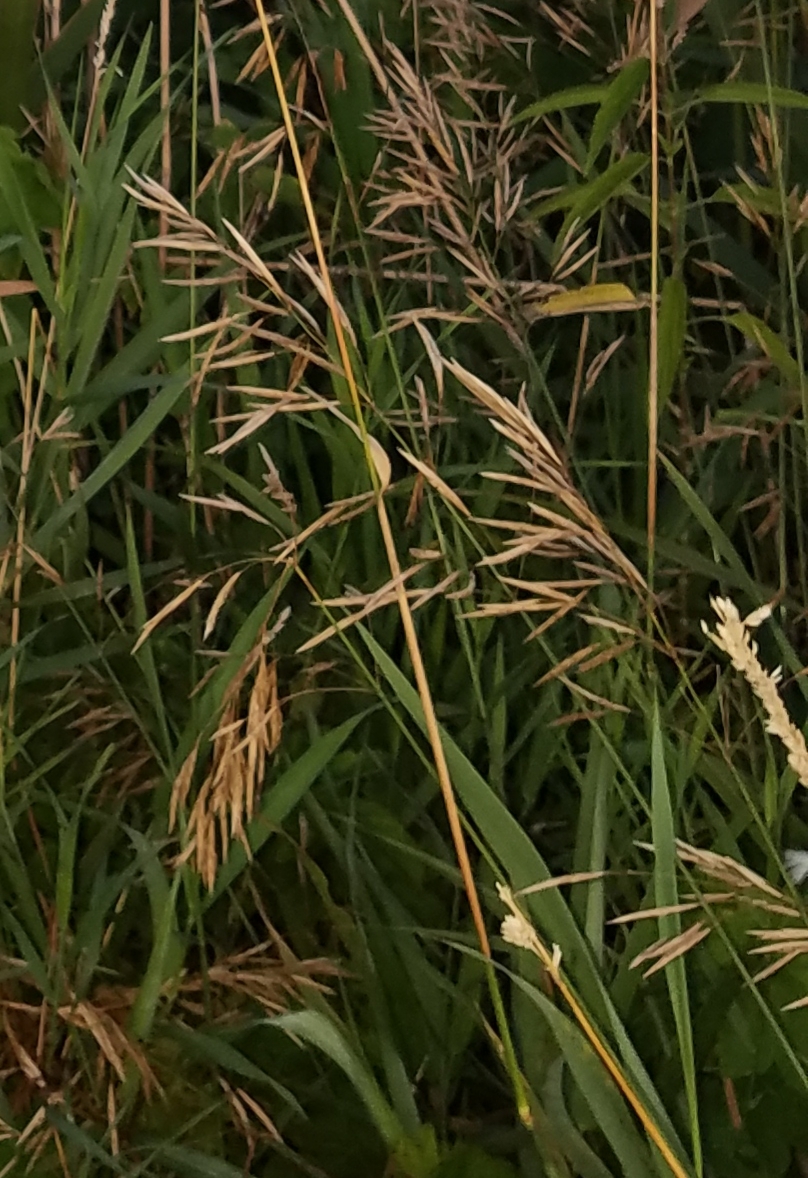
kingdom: Plantae
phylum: Tracheophyta
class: Liliopsida
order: Poales
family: Poaceae
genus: Bromus
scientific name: Bromus inermis
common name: Smooth brome
